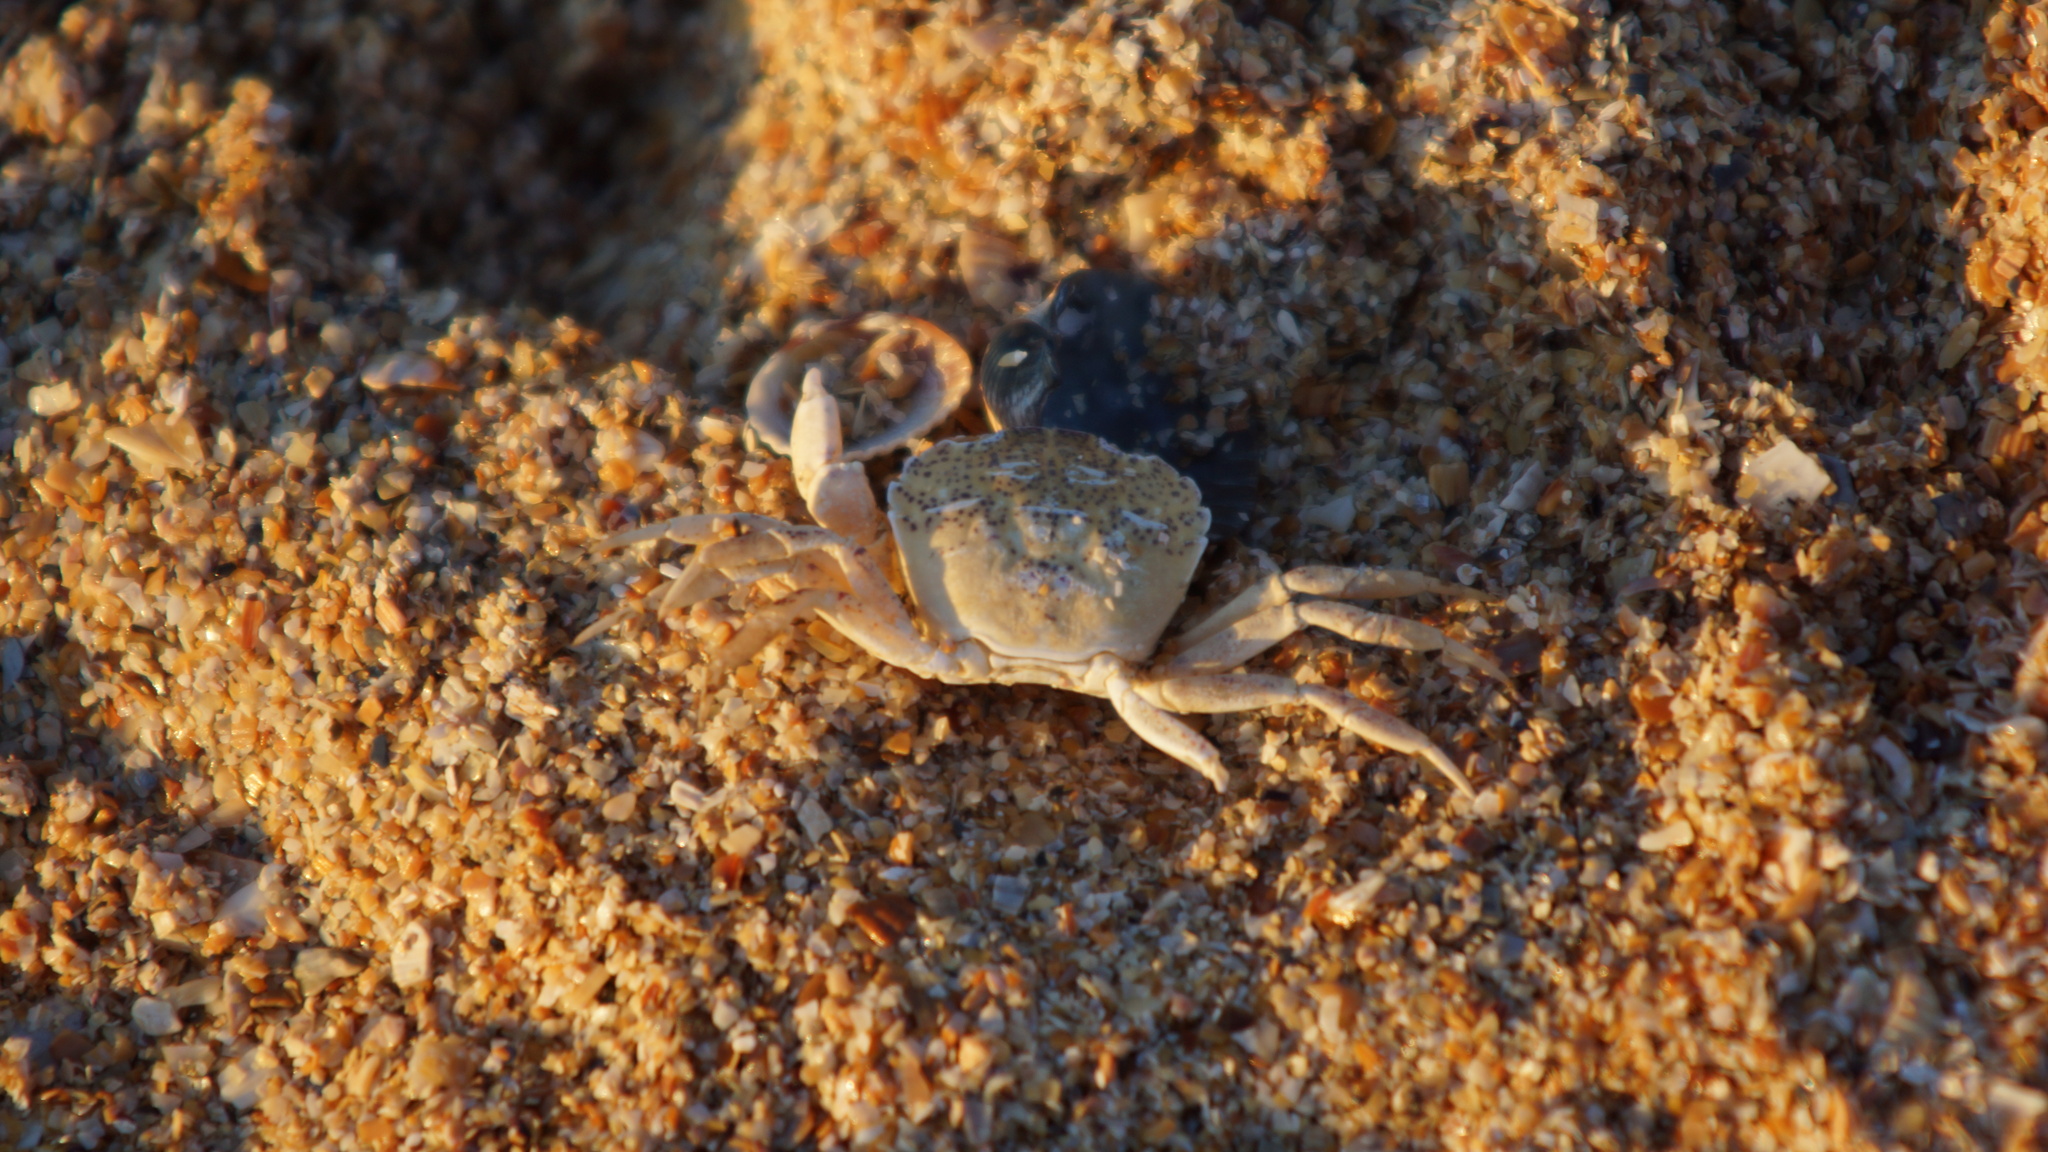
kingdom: Animalia
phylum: Arthropoda
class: Malacostraca
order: Decapoda
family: Panopeidae
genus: Rhithropanopeus
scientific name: Rhithropanopeus harrisii
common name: Dwarf crab
